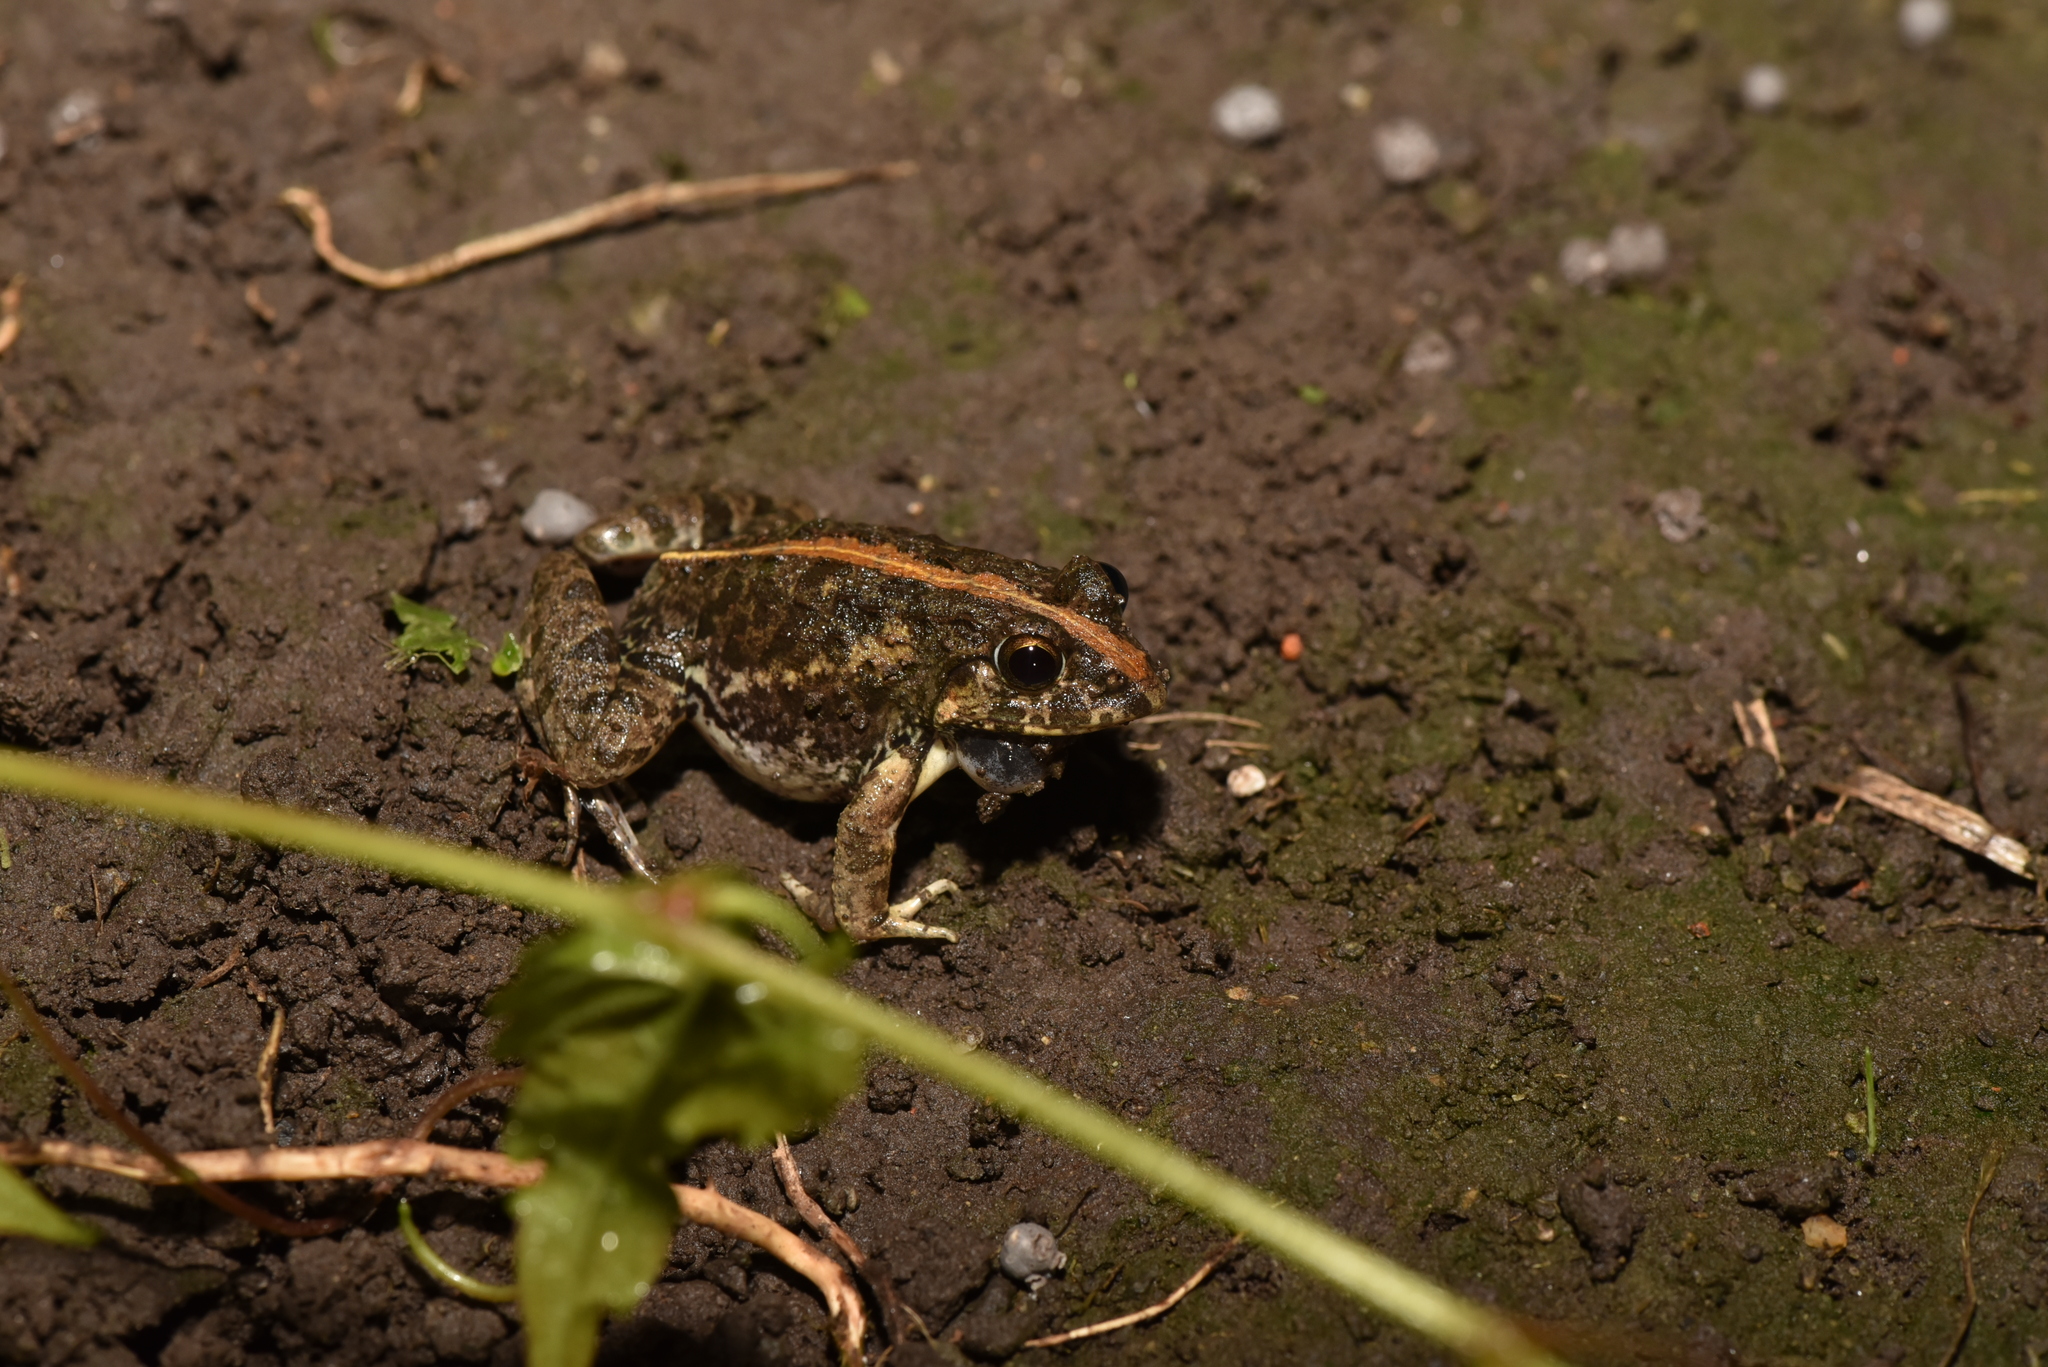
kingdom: Animalia
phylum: Chordata
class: Amphibia
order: Anura
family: Dicroglossidae
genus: Fejervarya
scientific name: Fejervarya limnocharis
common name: Asian grass frog/common pond frog/field frog/grass frog/indian rice frog
